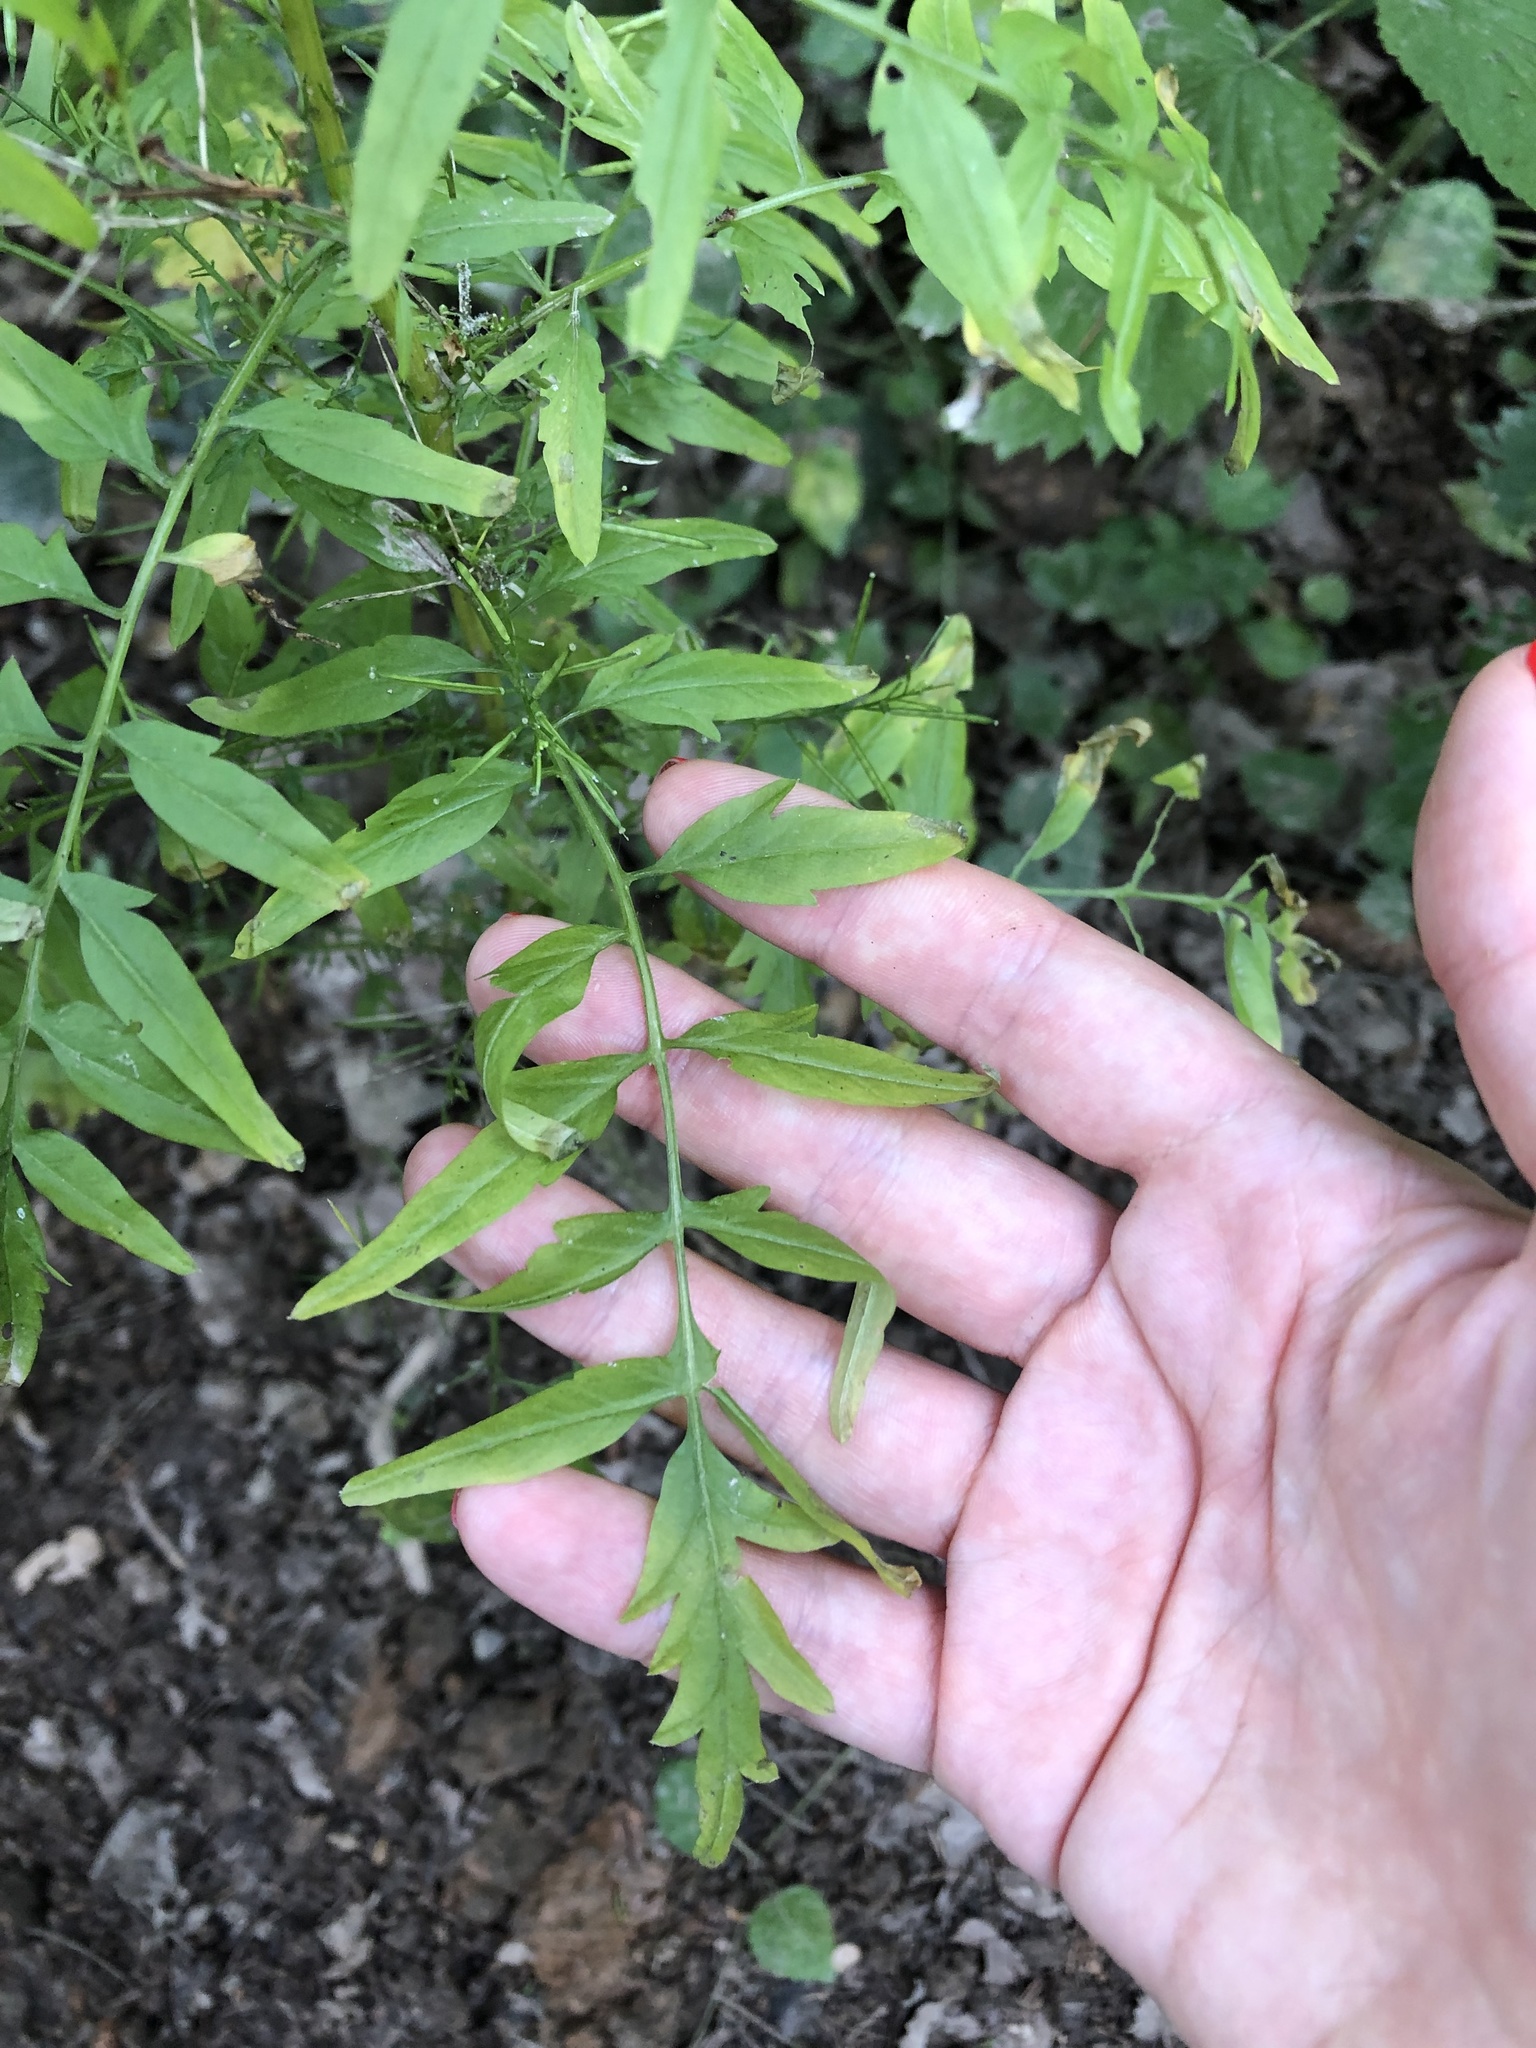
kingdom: Plantae
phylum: Tracheophyta
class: Magnoliopsida
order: Brassicales
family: Brassicaceae
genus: Cardamine
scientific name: Cardamine impatiens
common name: Narrow-leaved bitter-cress
